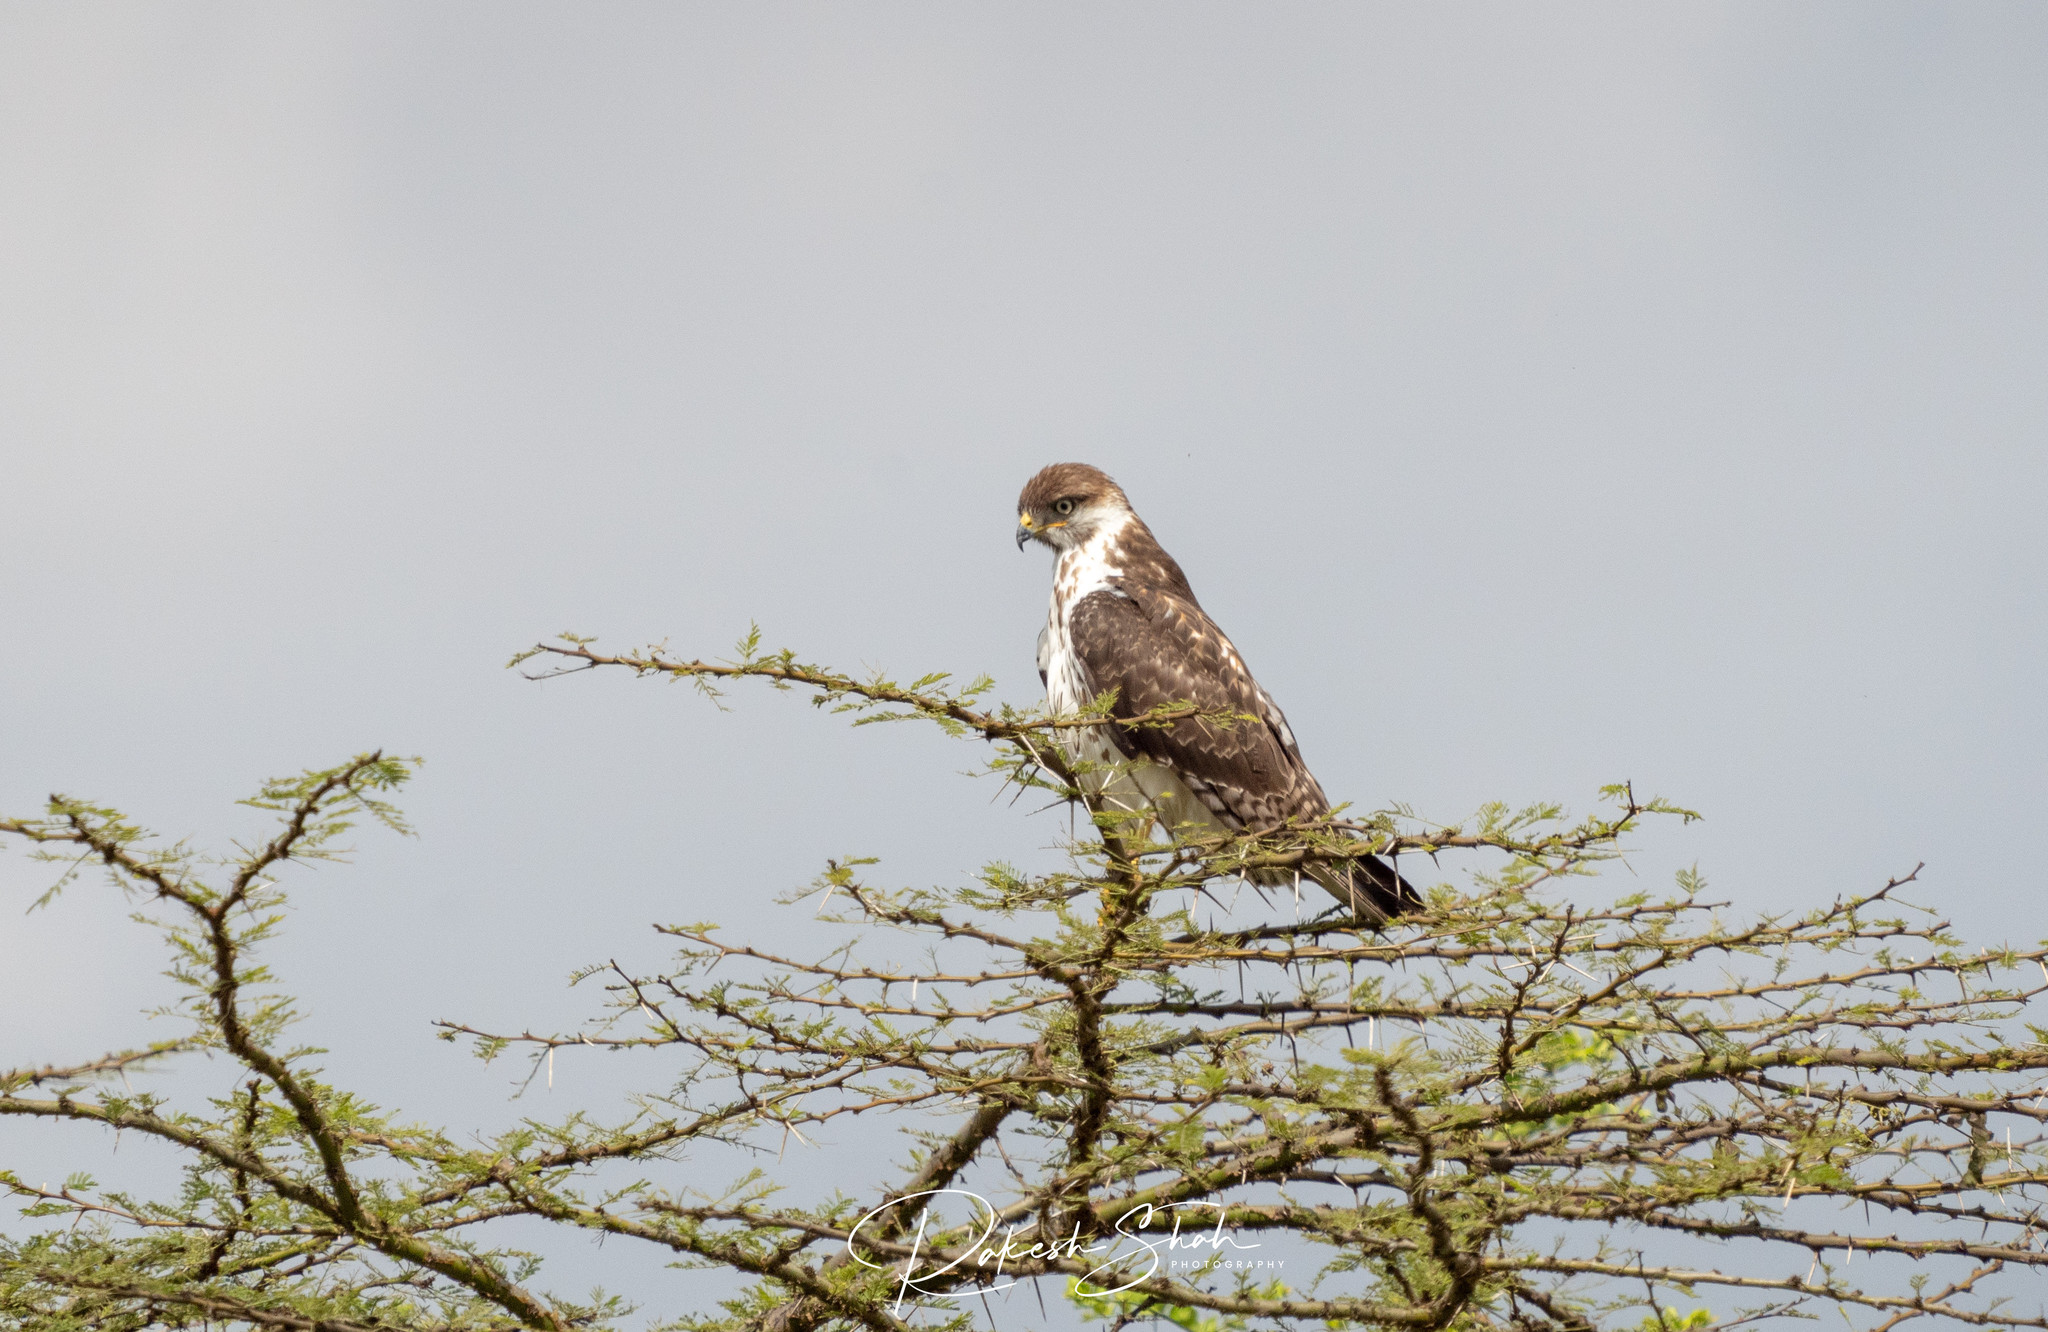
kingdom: Animalia
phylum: Chordata
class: Aves
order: Accipitriformes
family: Accipitridae
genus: Buteo
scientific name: Buteo augur
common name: Augur buzzard
